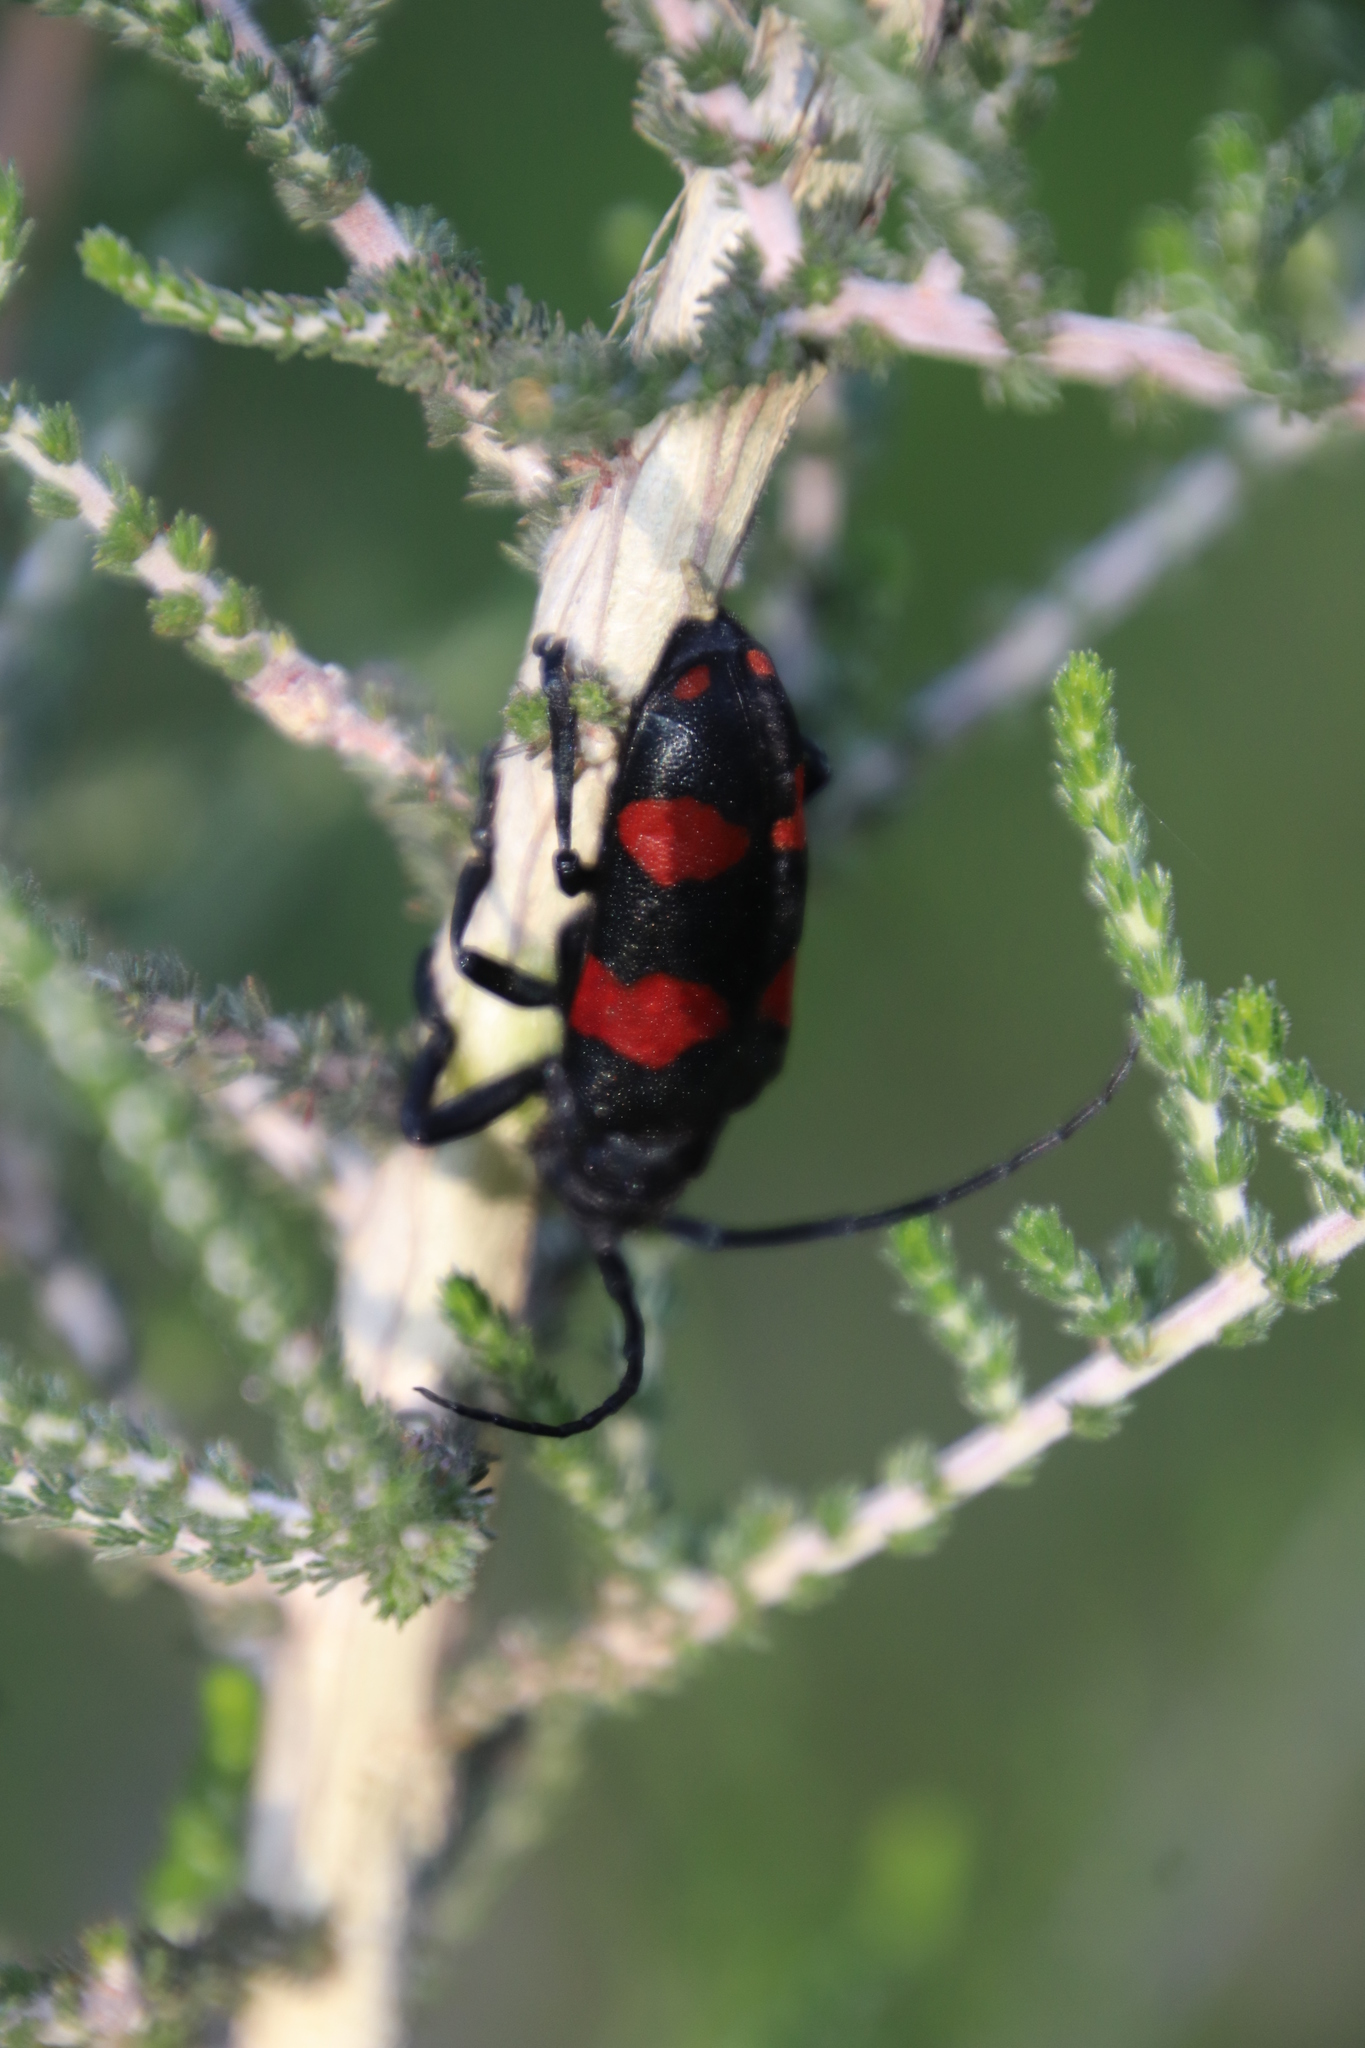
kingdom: Animalia
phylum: Arthropoda
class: Insecta
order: Coleoptera
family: Cerambycidae
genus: Ceroplesis
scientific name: Ceroplesis aethiops
